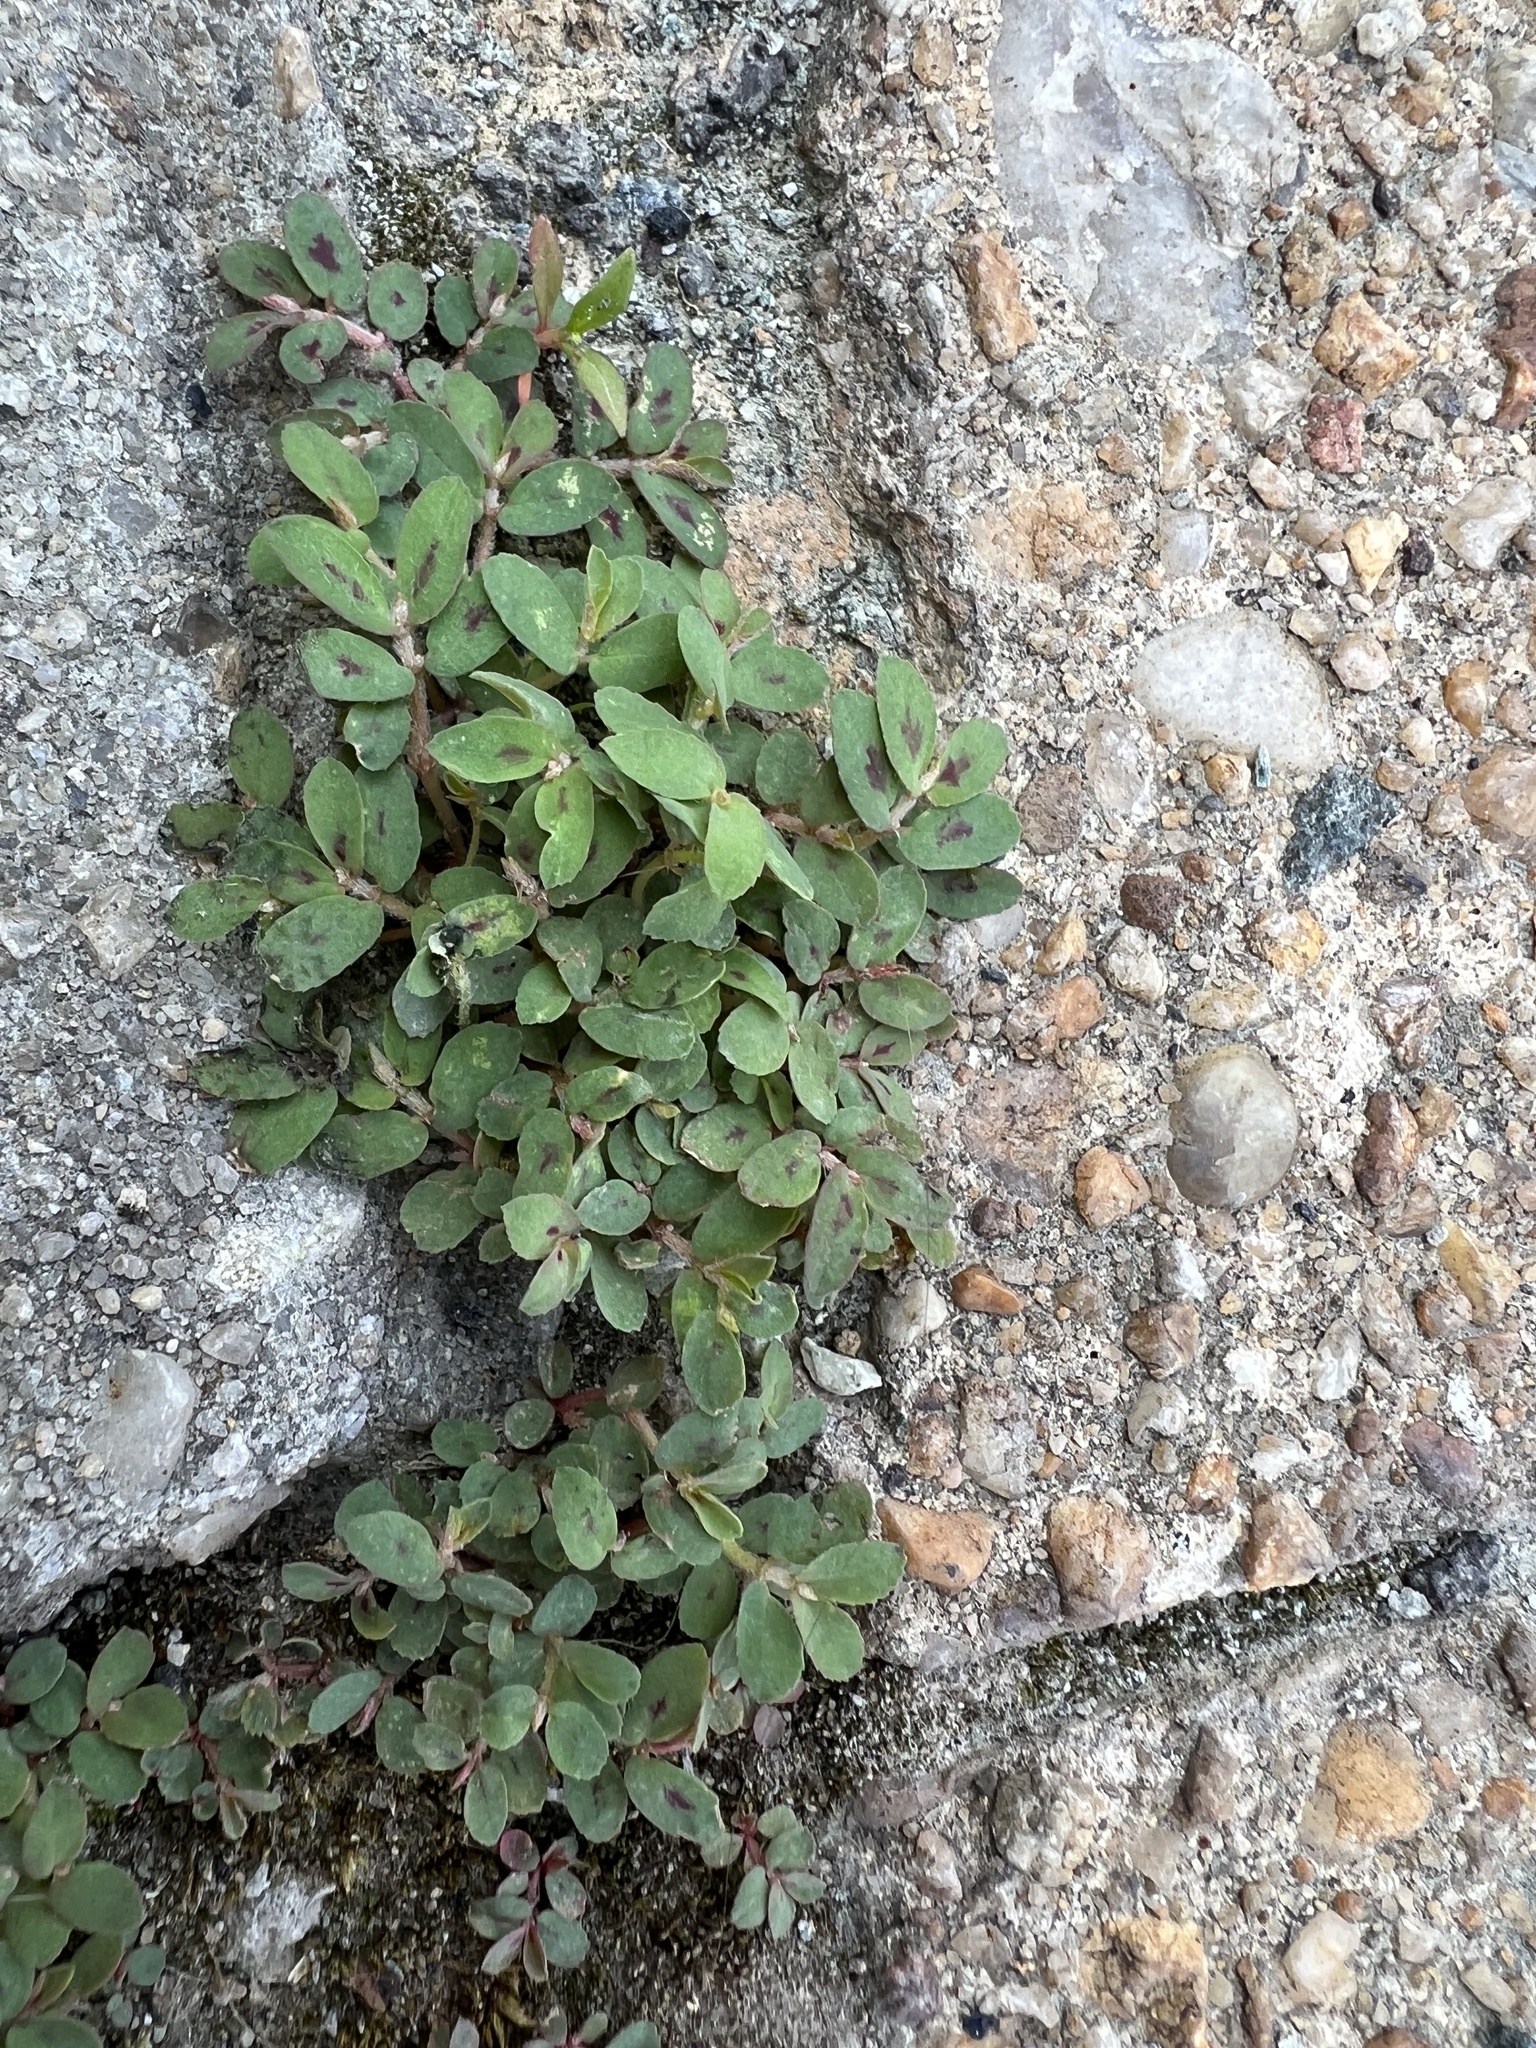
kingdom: Plantae
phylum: Tracheophyta
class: Magnoliopsida
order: Malpighiales
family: Euphorbiaceae
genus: Euphorbia
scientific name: Euphorbia maculata
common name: Spotted spurge
